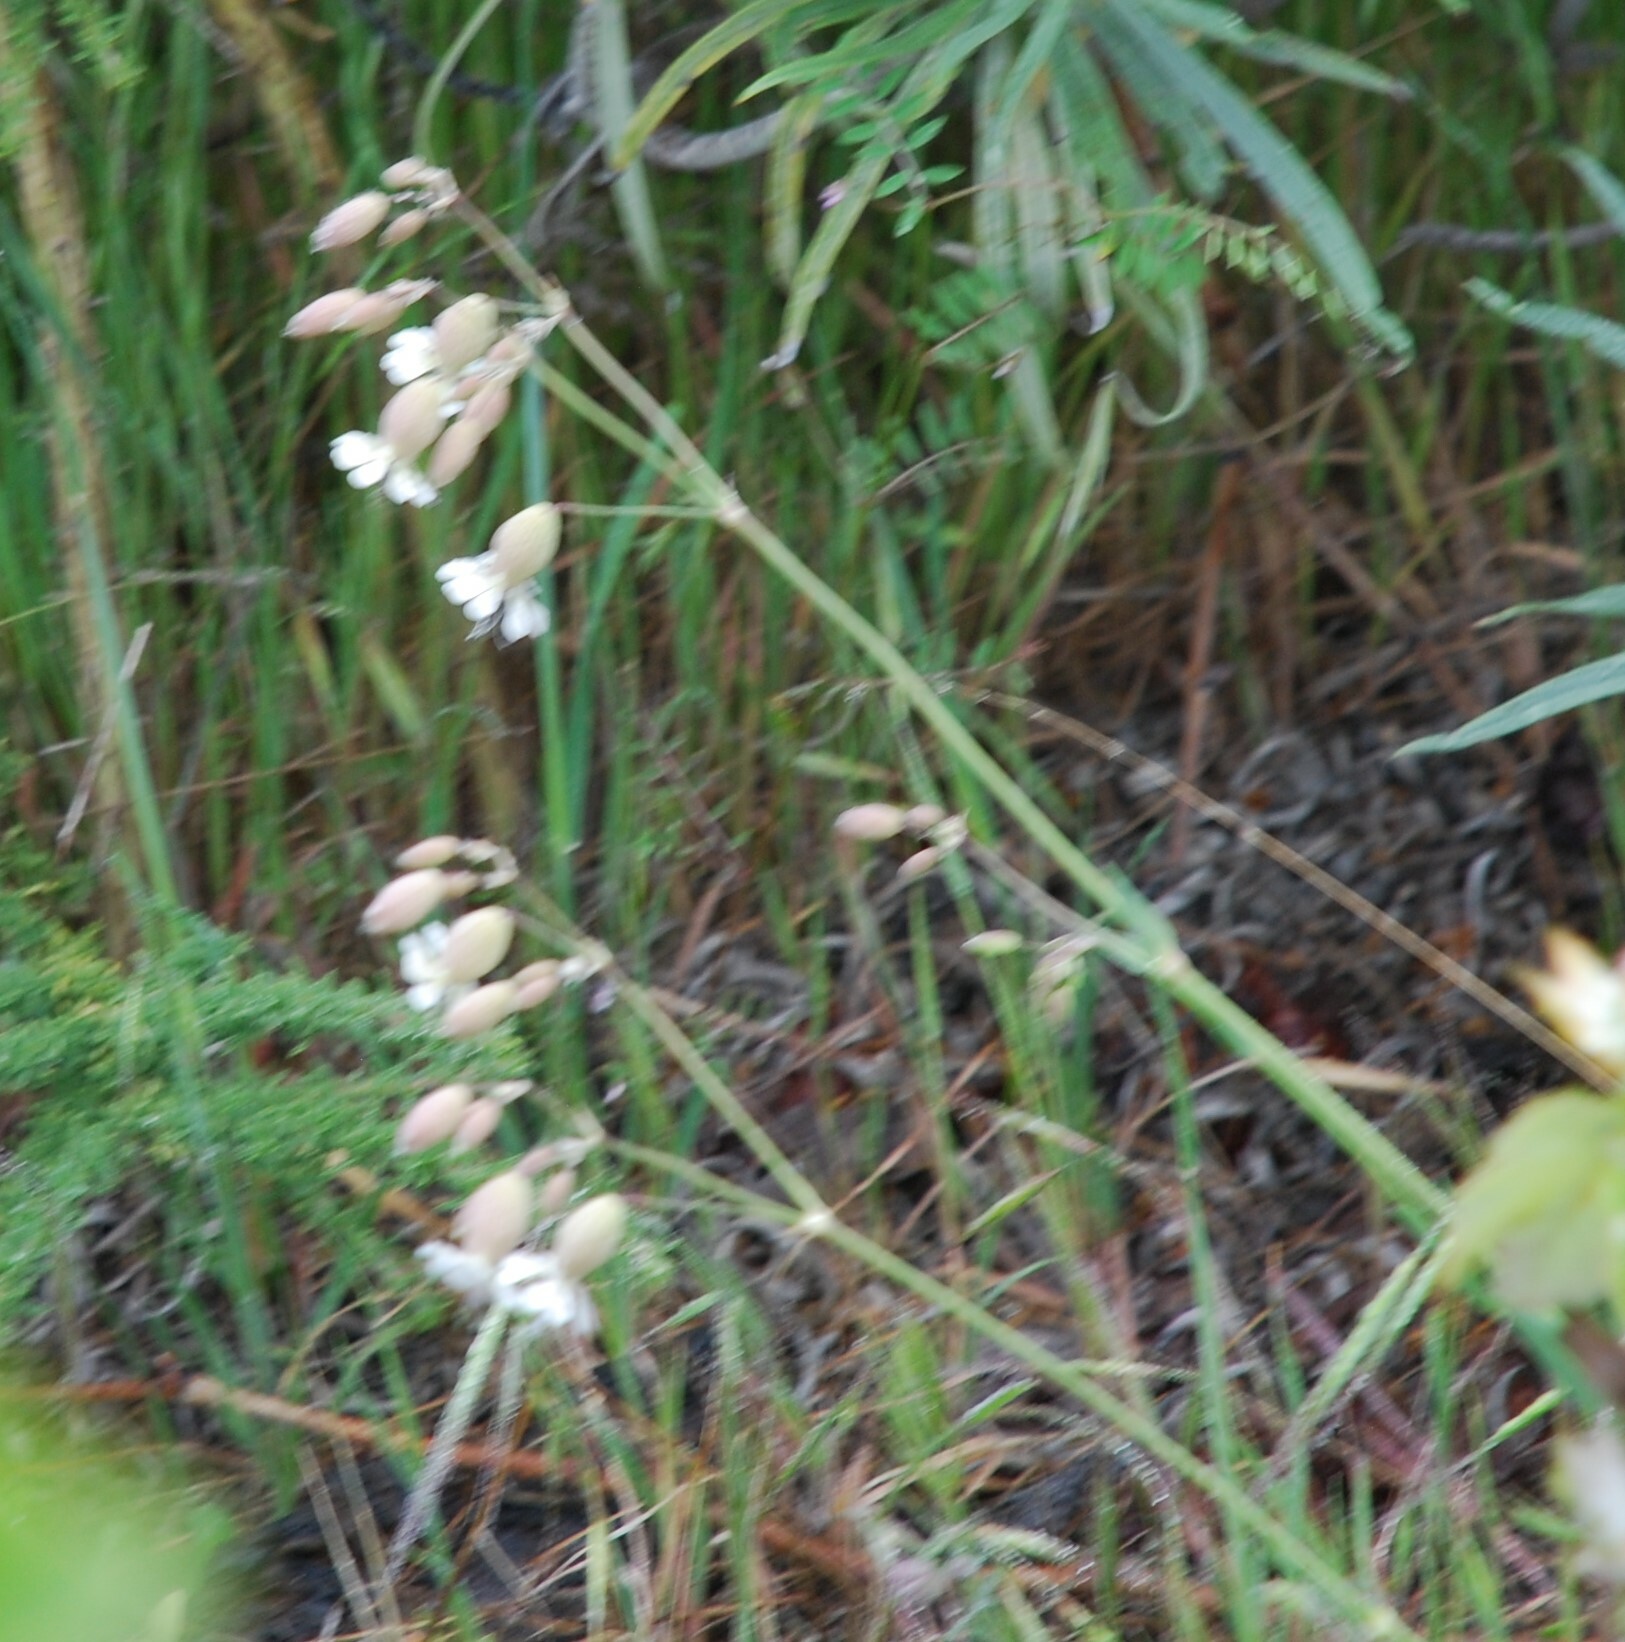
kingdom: Plantae
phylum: Tracheophyta
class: Magnoliopsida
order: Caryophyllales
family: Caryophyllaceae
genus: Silene
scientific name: Silene vulgaris
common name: Bladder campion
